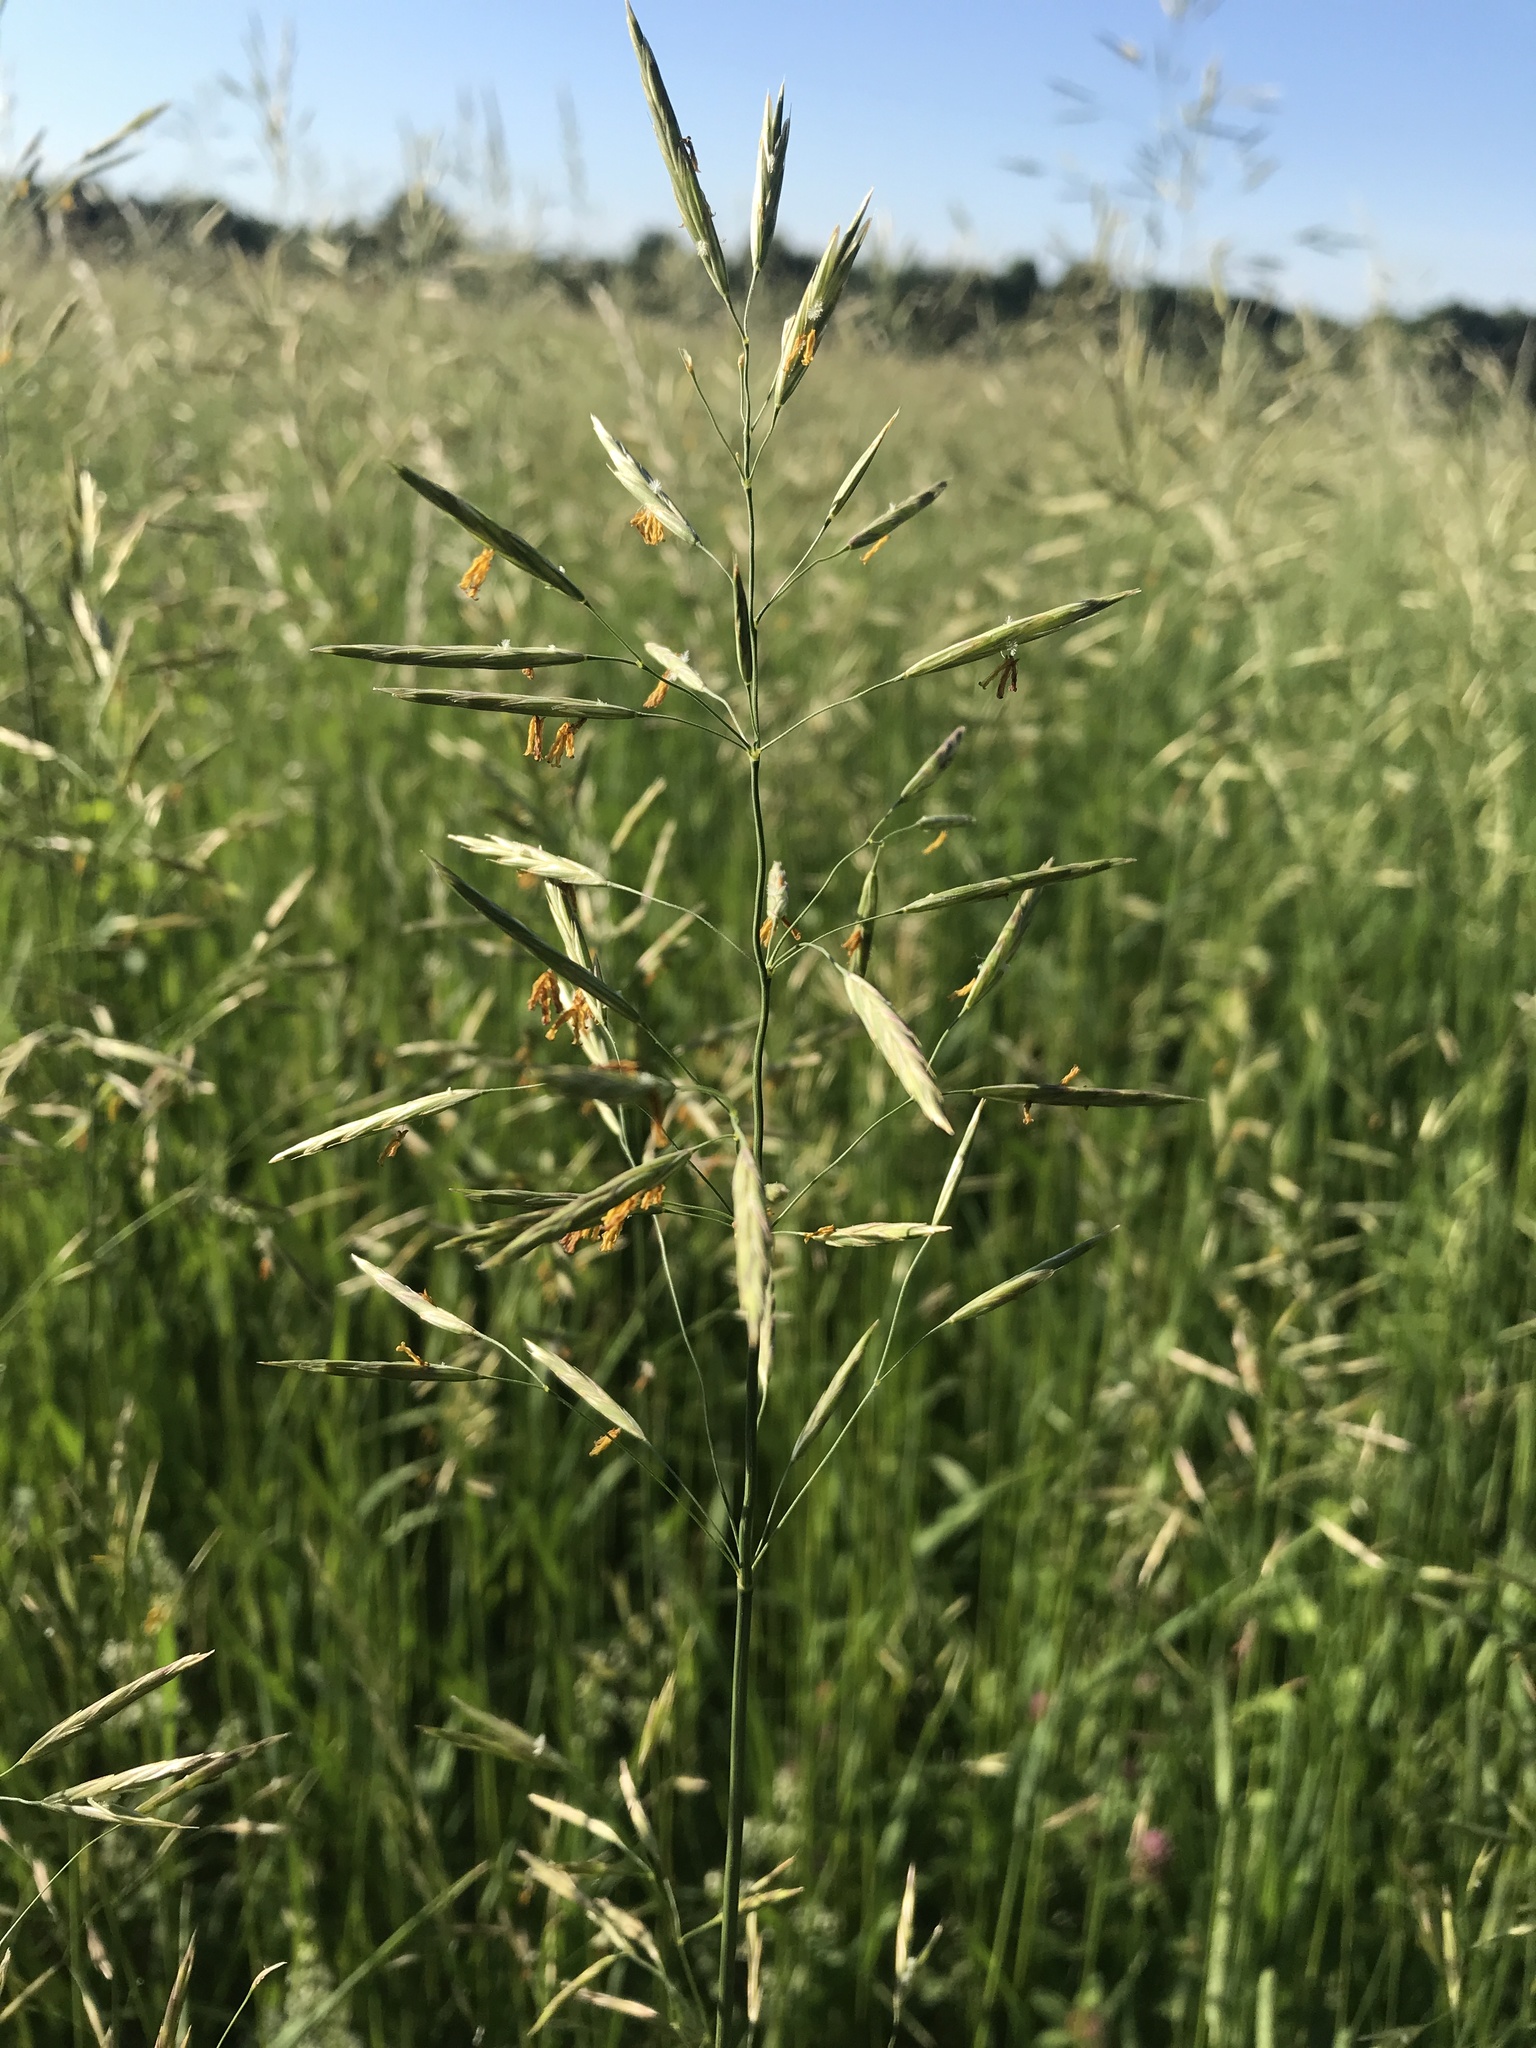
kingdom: Plantae
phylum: Tracheophyta
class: Liliopsida
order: Poales
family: Poaceae
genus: Bromus
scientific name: Bromus inermis
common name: Smooth brome
